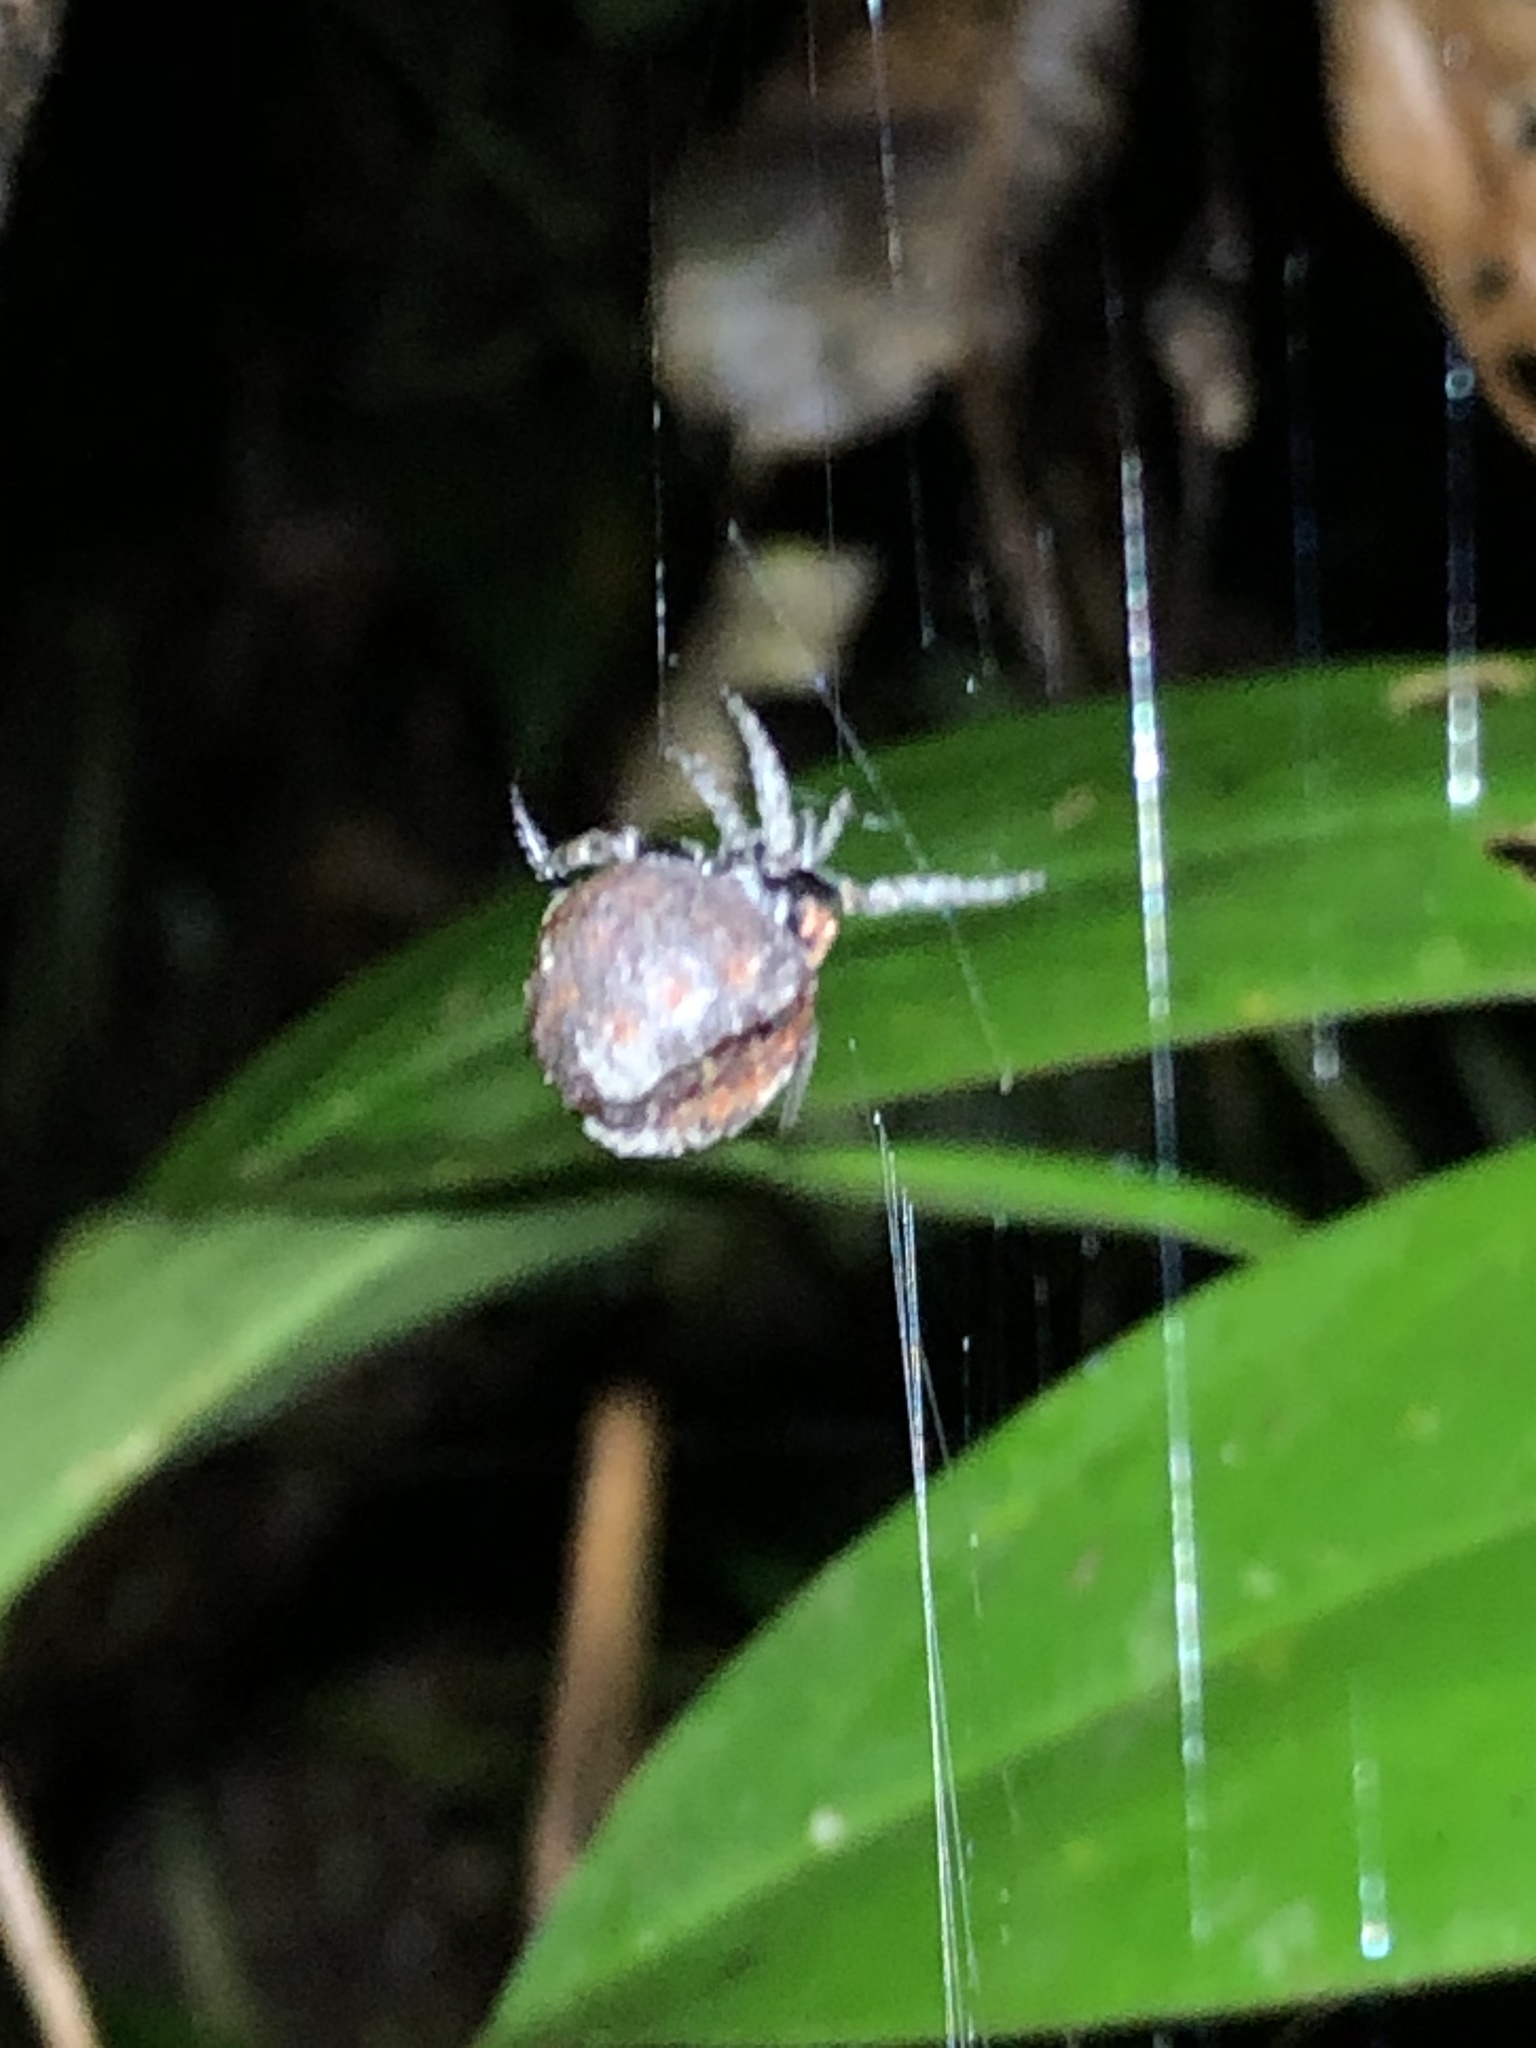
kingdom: Animalia
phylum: Arthropoda
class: Arachnida
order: Araneae
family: Araneidae
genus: Xylethrus
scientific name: Xylethrus scrupeus
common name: Orb weavers
